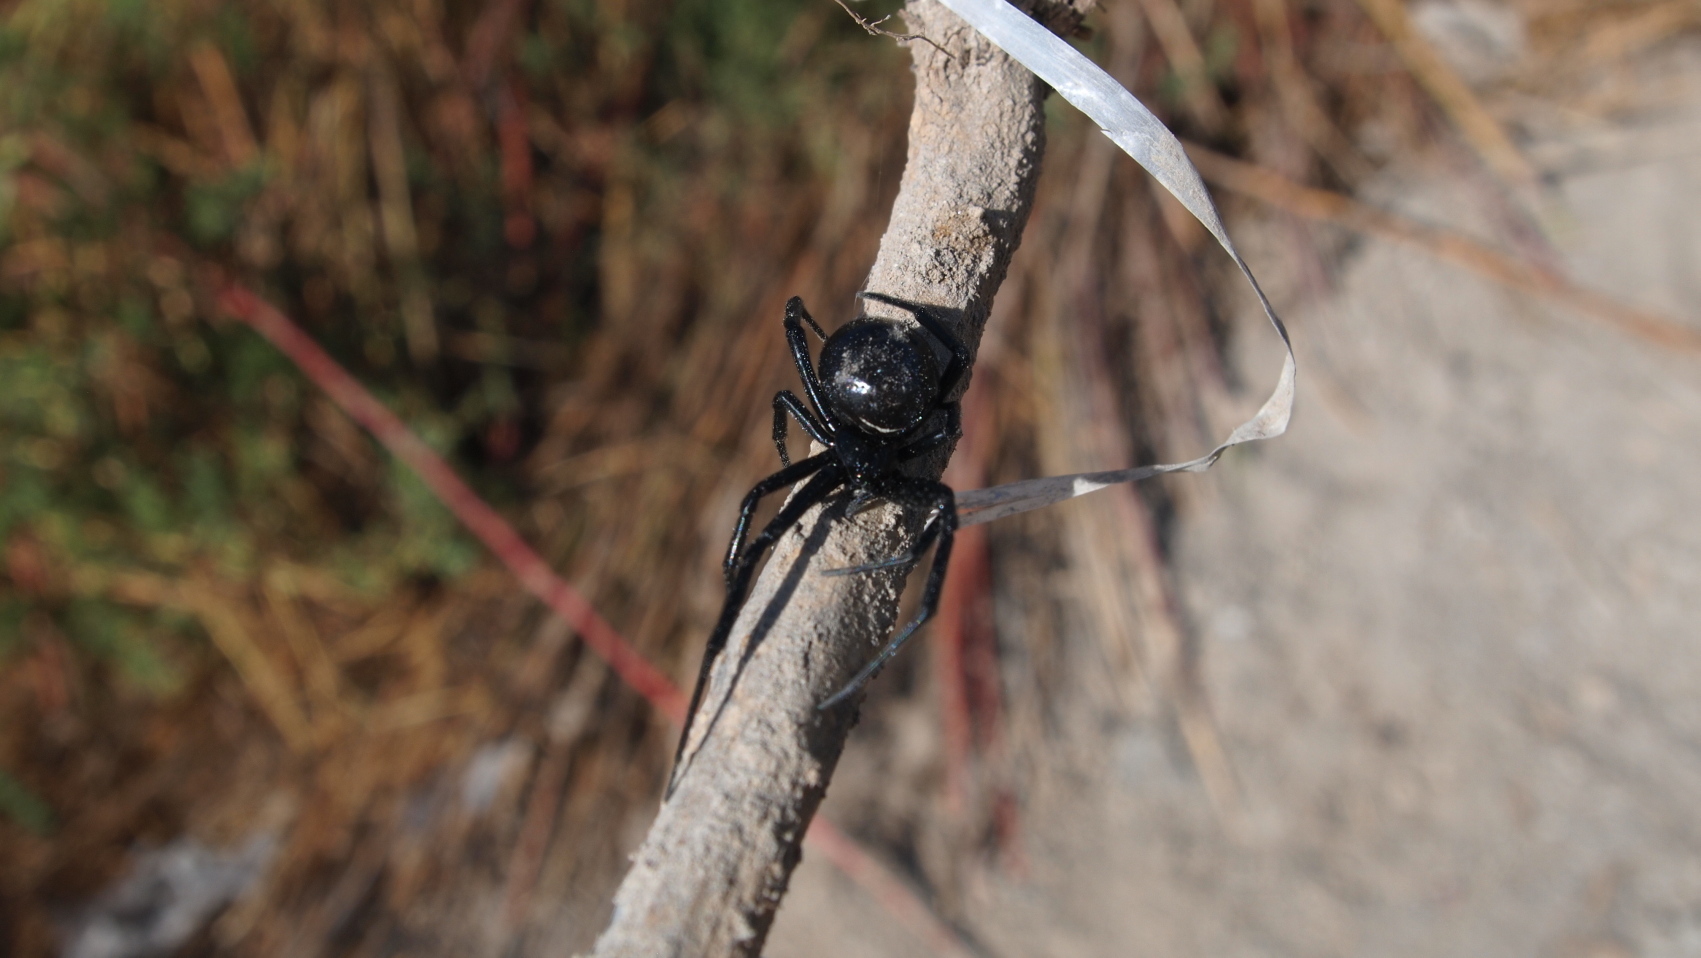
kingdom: Animalia
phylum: Arthropoda
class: Arachnida
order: Araneae
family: Theridiidae
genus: Latrodectus
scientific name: Latrodectus mactans
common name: Cobweb spiders
